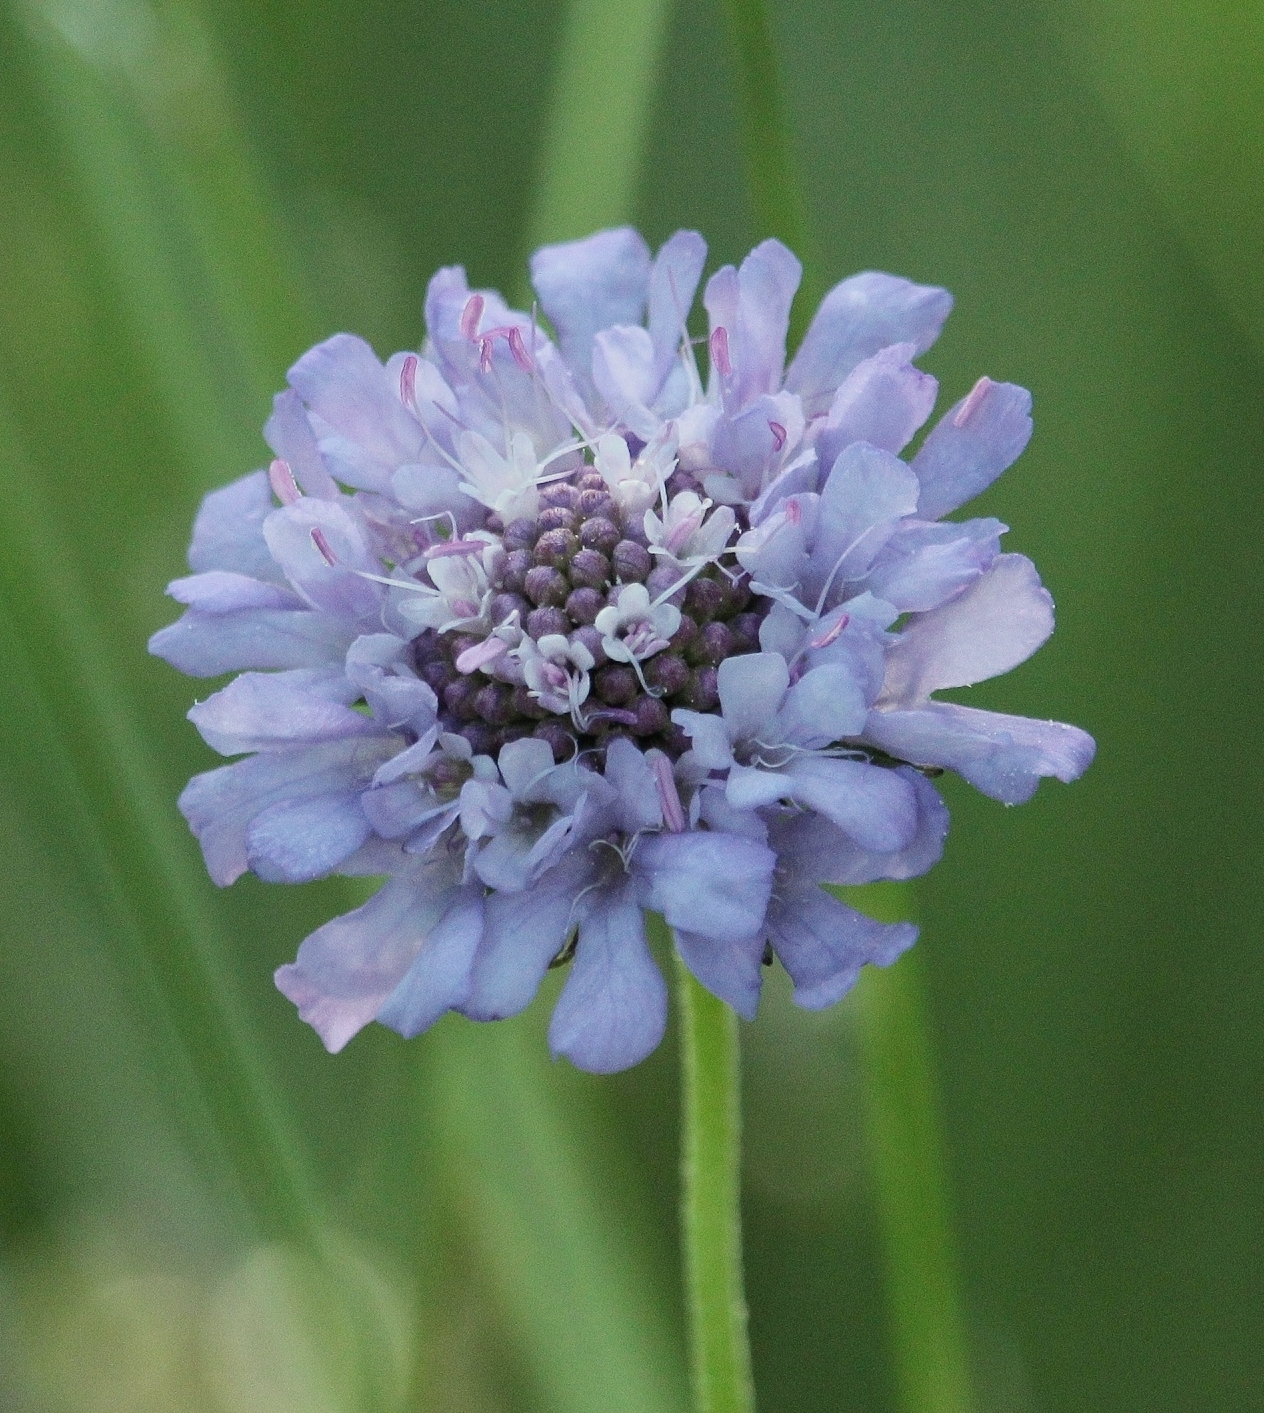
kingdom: Plantae
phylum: Tracheophyta
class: Magnoliopsida
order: Dipsacales
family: Caprifoliaceae
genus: Scabiosa
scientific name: Scabiosa columbaria
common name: Small scabious
